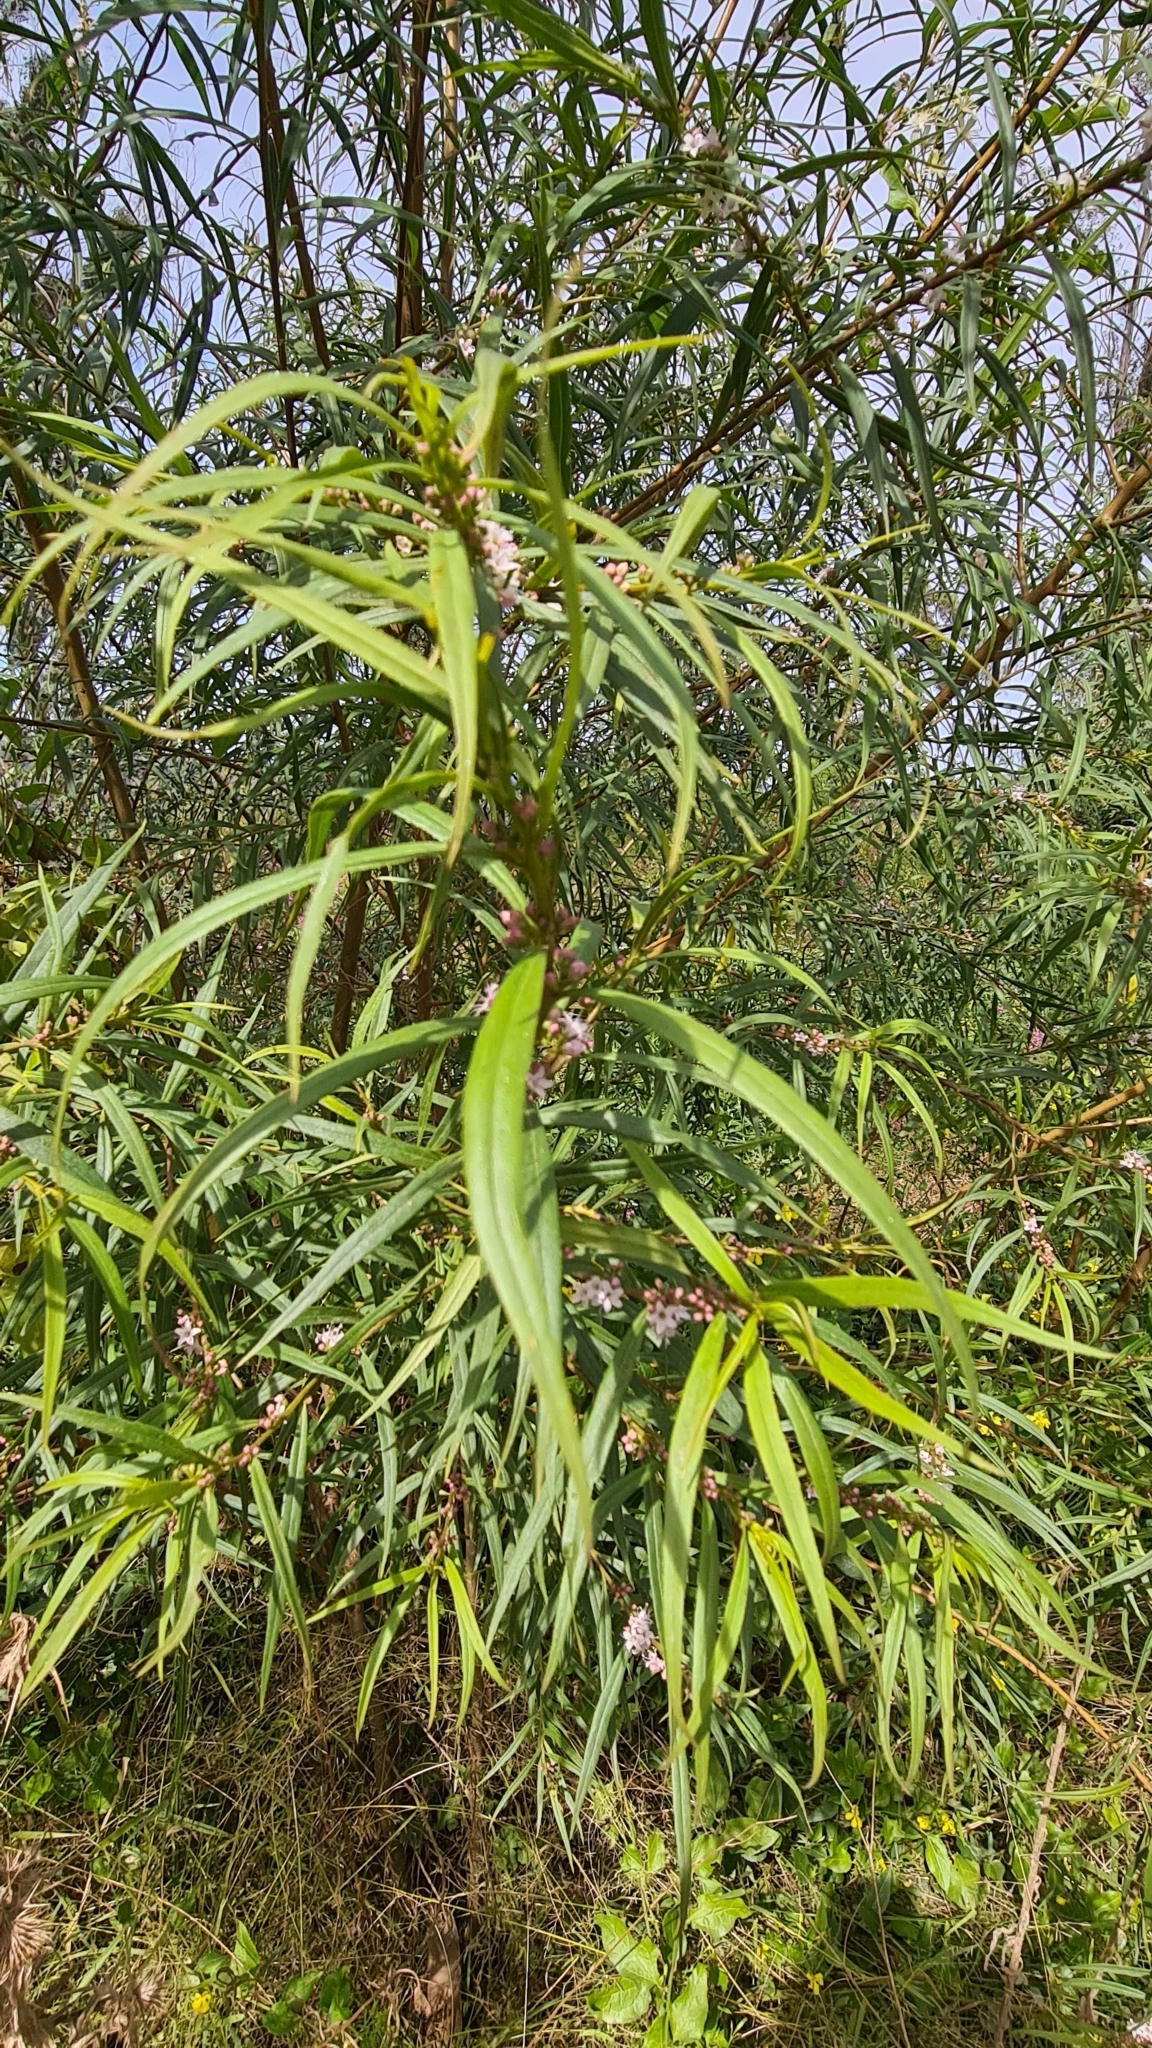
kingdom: Plantae
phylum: Tracheophyta
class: Magnoliopsida
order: Lamiales
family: Scrophulariaceae
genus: Myoporum
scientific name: Myoporum bateae
